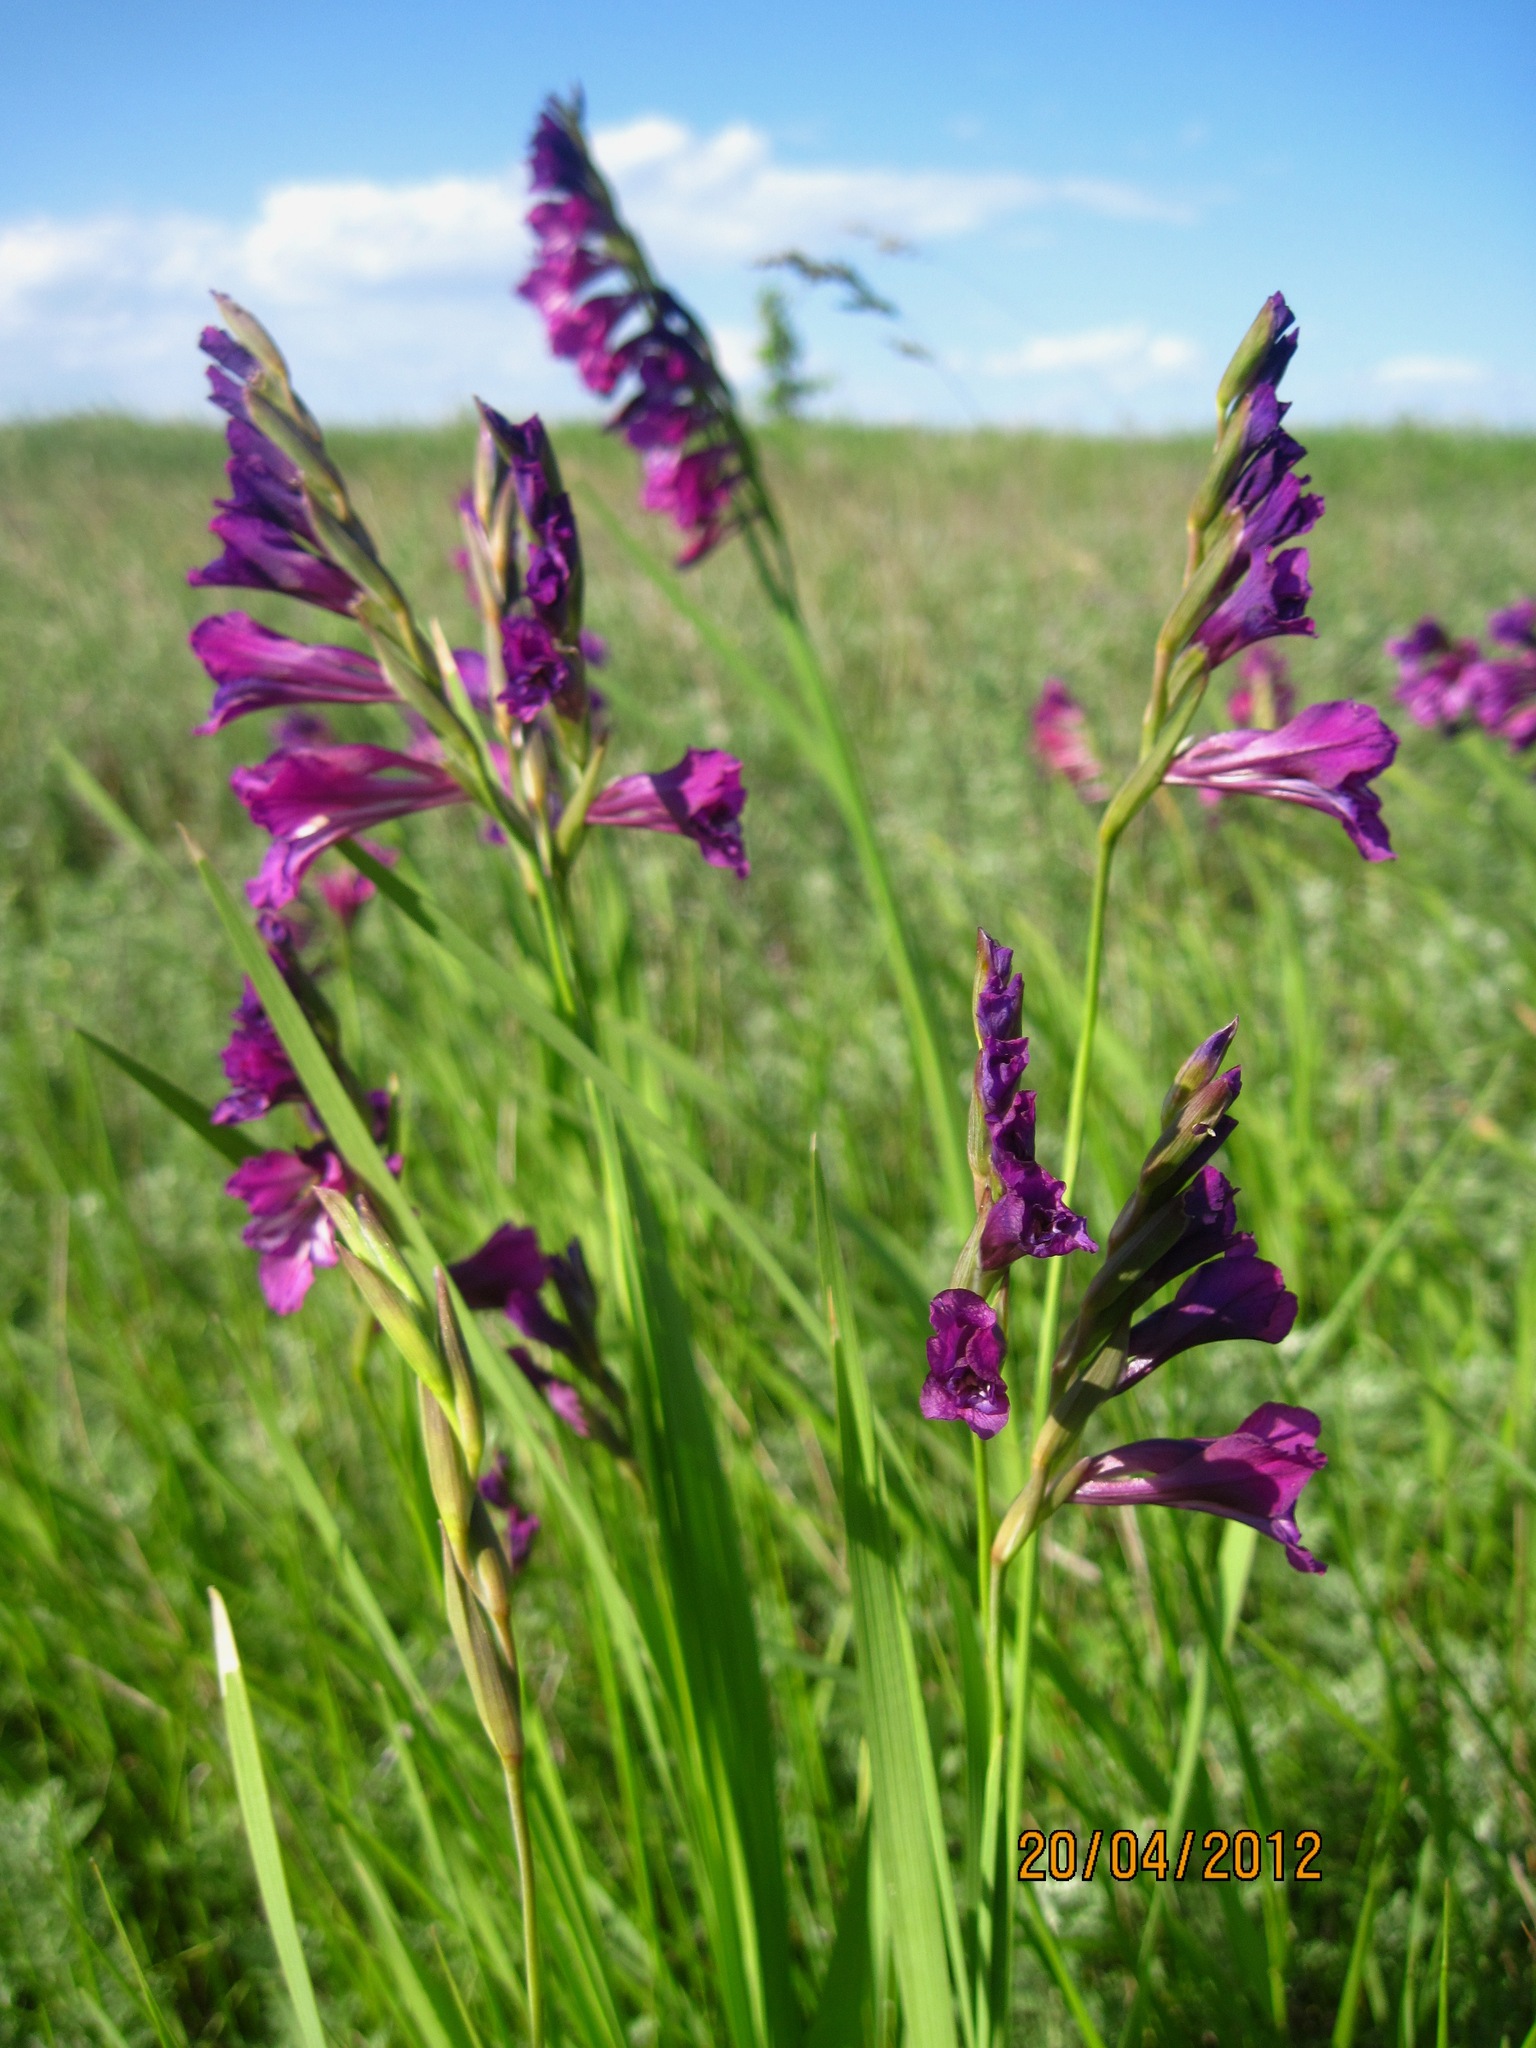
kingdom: Plantae
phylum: Tracheophyta
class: Liliopsida
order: Asparagales
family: Iridaceae
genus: Gladiolus
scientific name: Gladiolus tenuis
